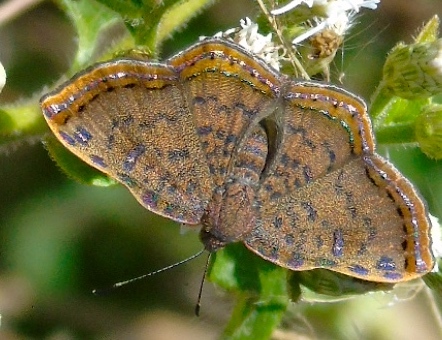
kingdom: Animalia
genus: Caria
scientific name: Caria ino
